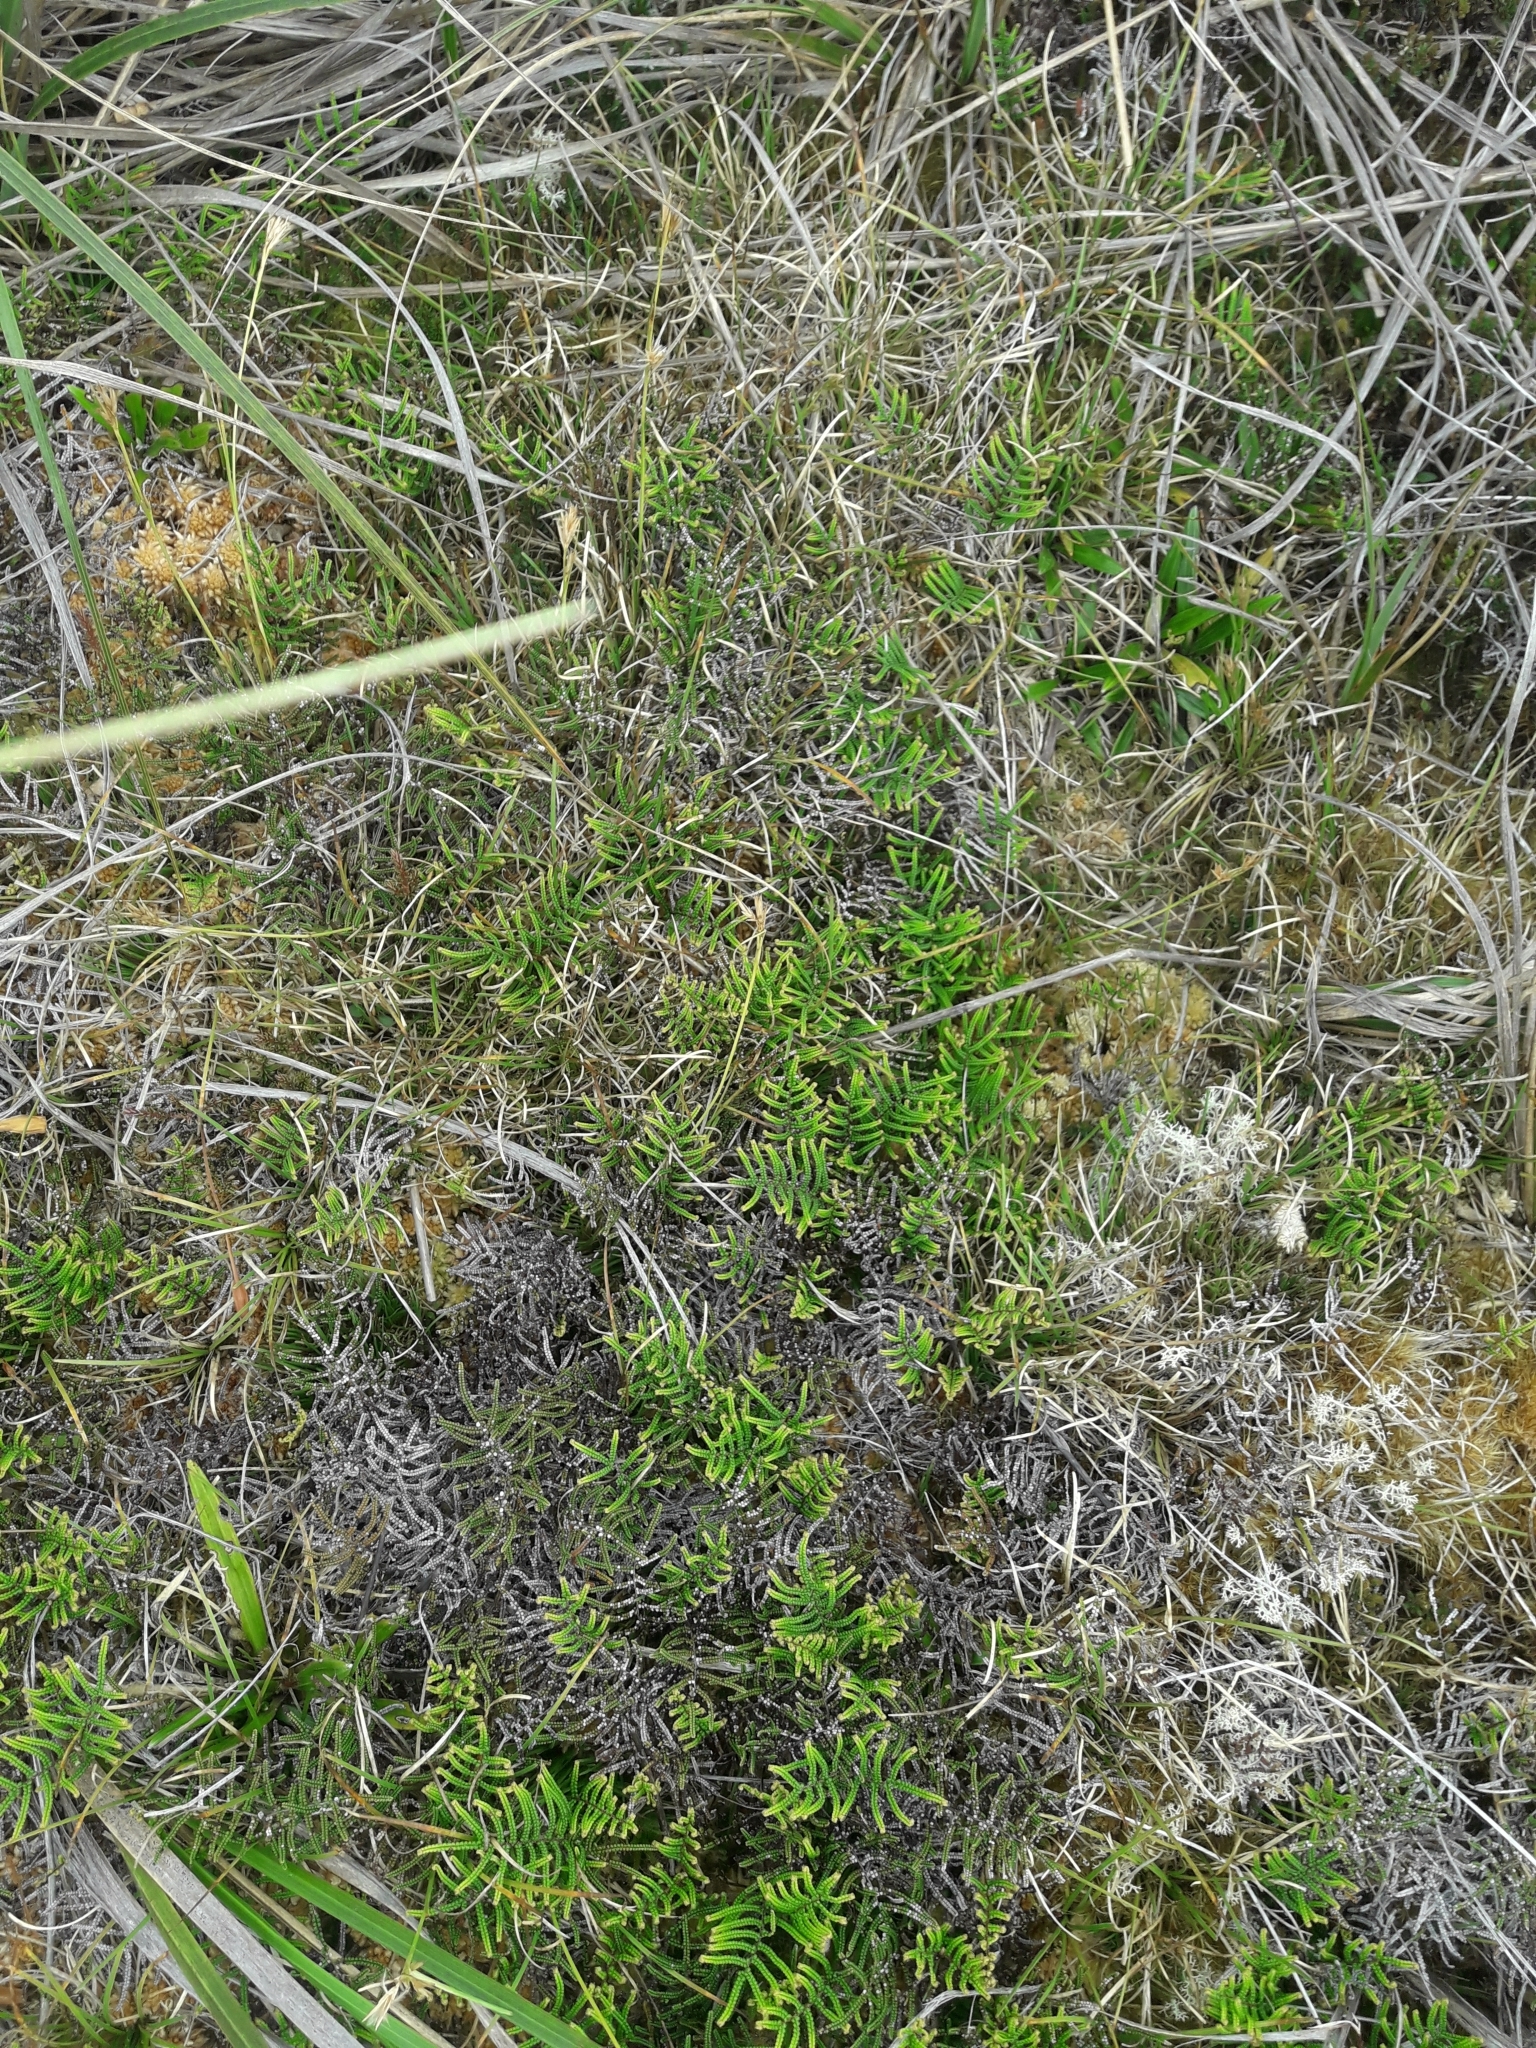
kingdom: Plantae
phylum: Tracheophyta
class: Polypodiopsida
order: Gleicheniales
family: Gleicheniaceae
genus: Gleichenia
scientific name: Gleichenia dicarpa
